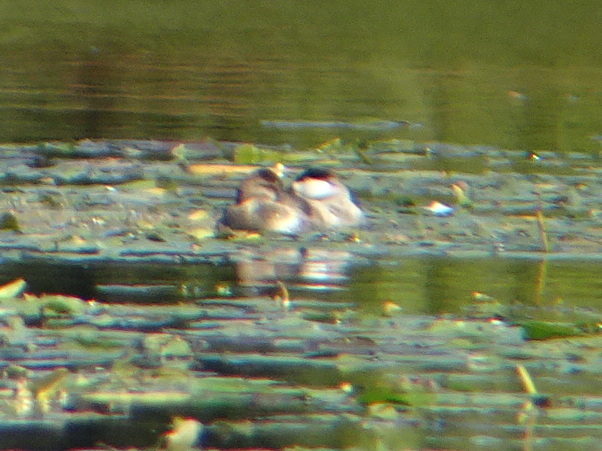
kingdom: Animalia
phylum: Chordata
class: Aves
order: Anseriformes
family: Anatidae
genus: Oxyura
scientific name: Oxyura jamaicensis
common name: Ruddy duck
